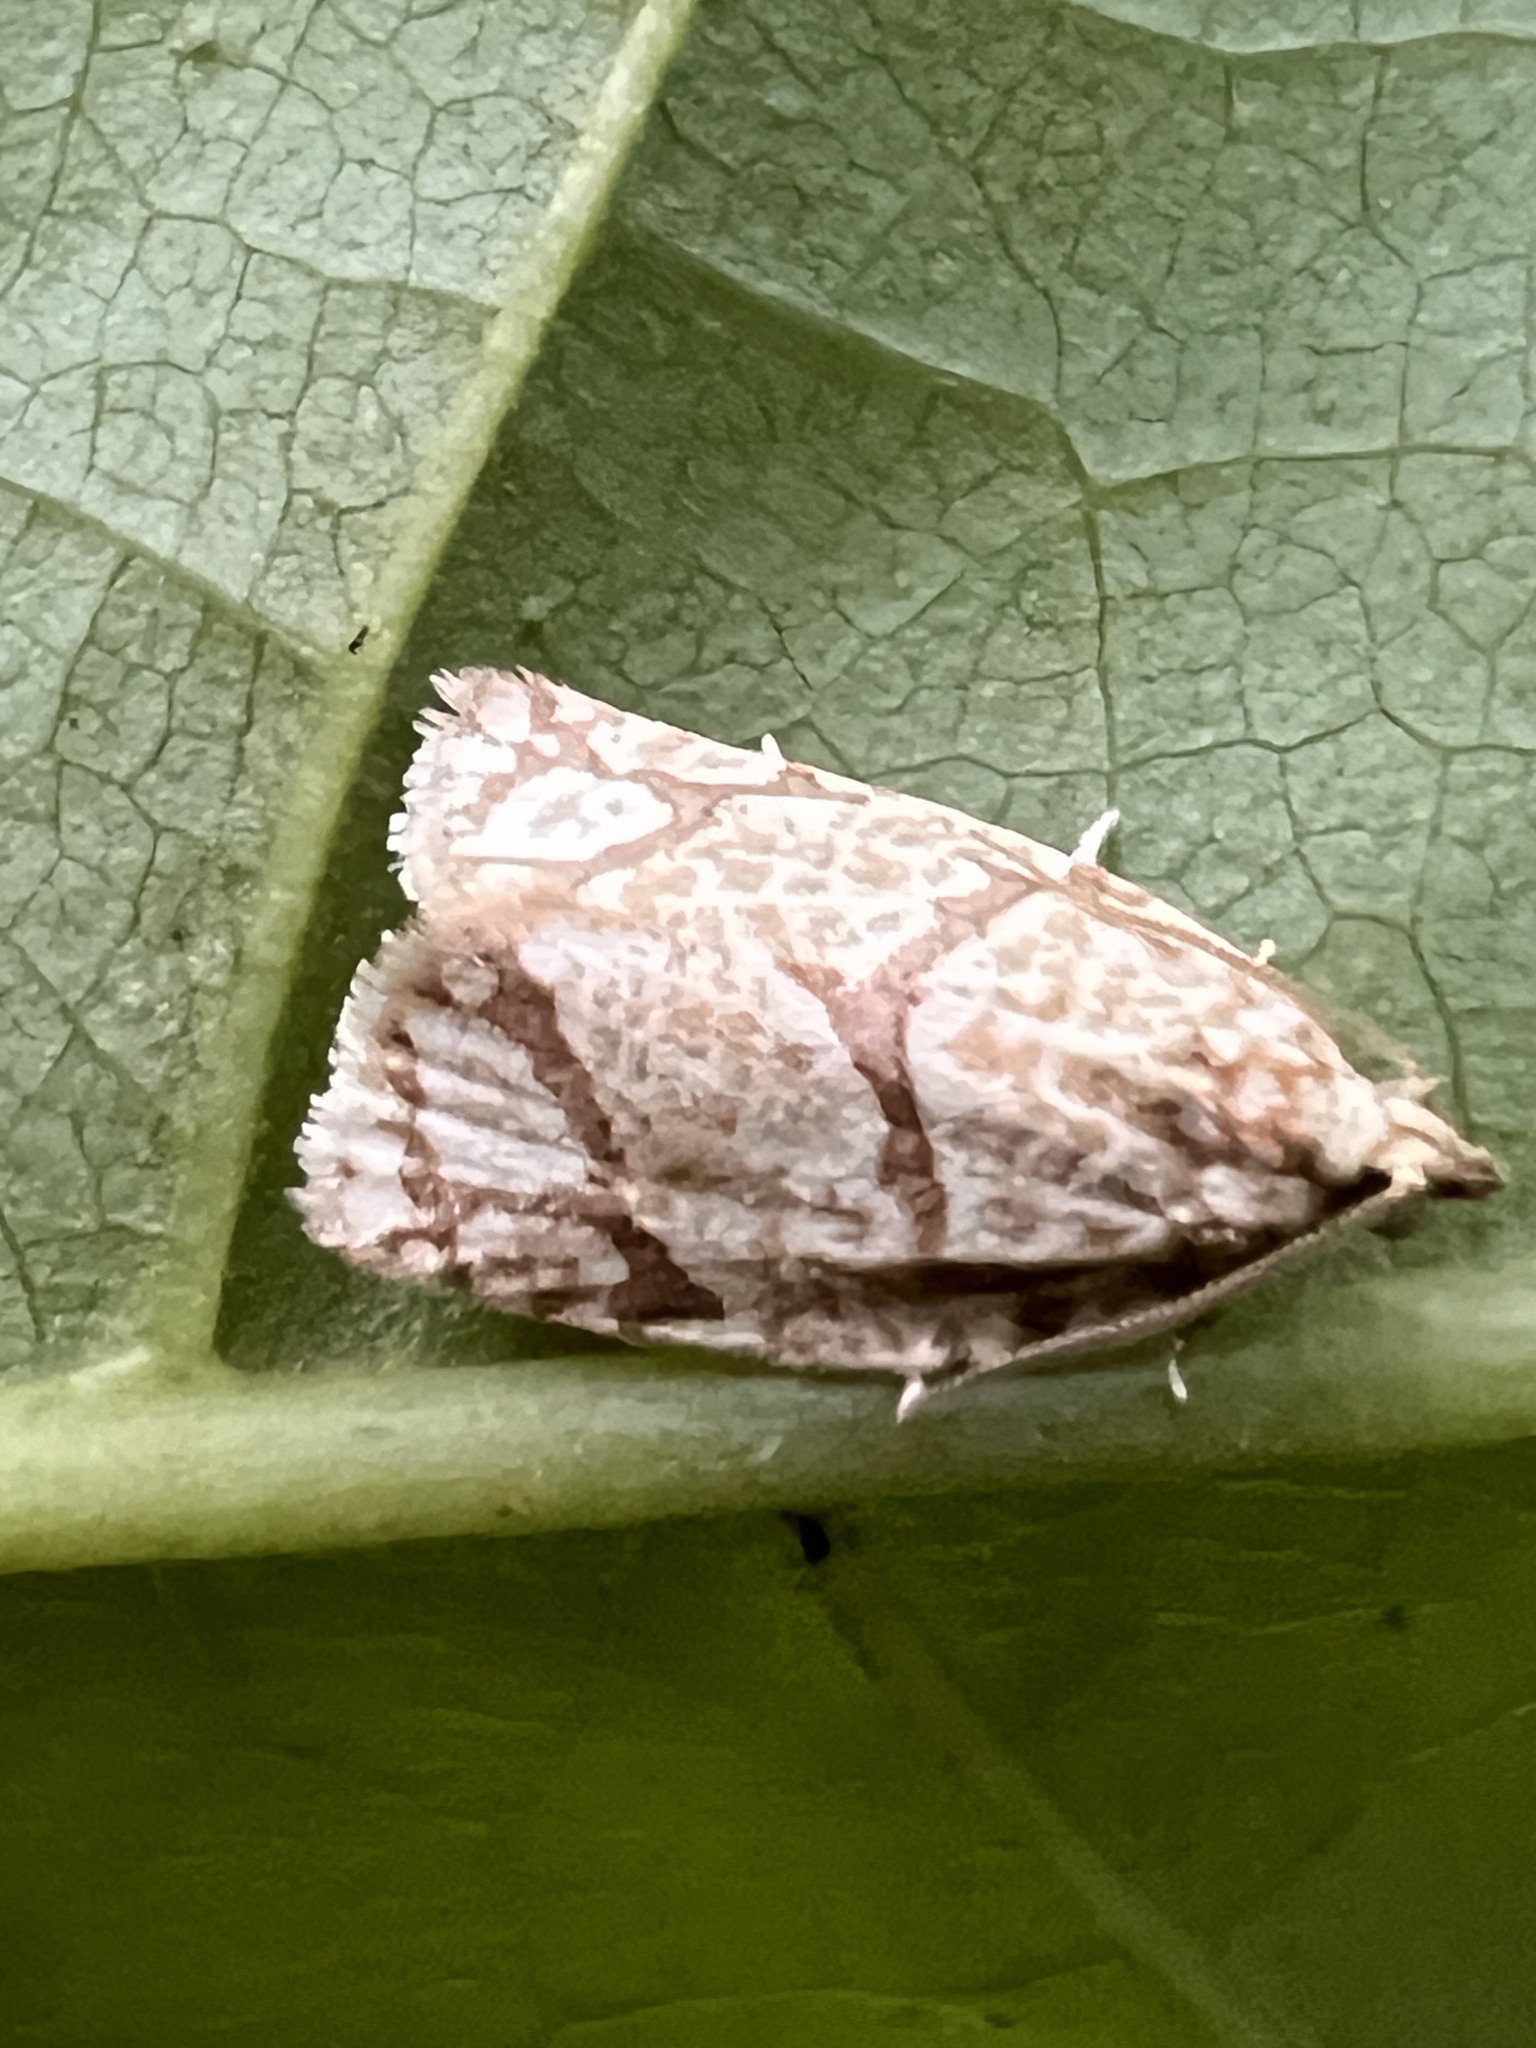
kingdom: Animalia
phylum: Arthropoda
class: Insecta
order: Lepidoptera
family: Tortricidae
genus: Argyrotaenia
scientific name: Argyrotaenia quercifoliana
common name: Yellow-winged oak leafroller moth
